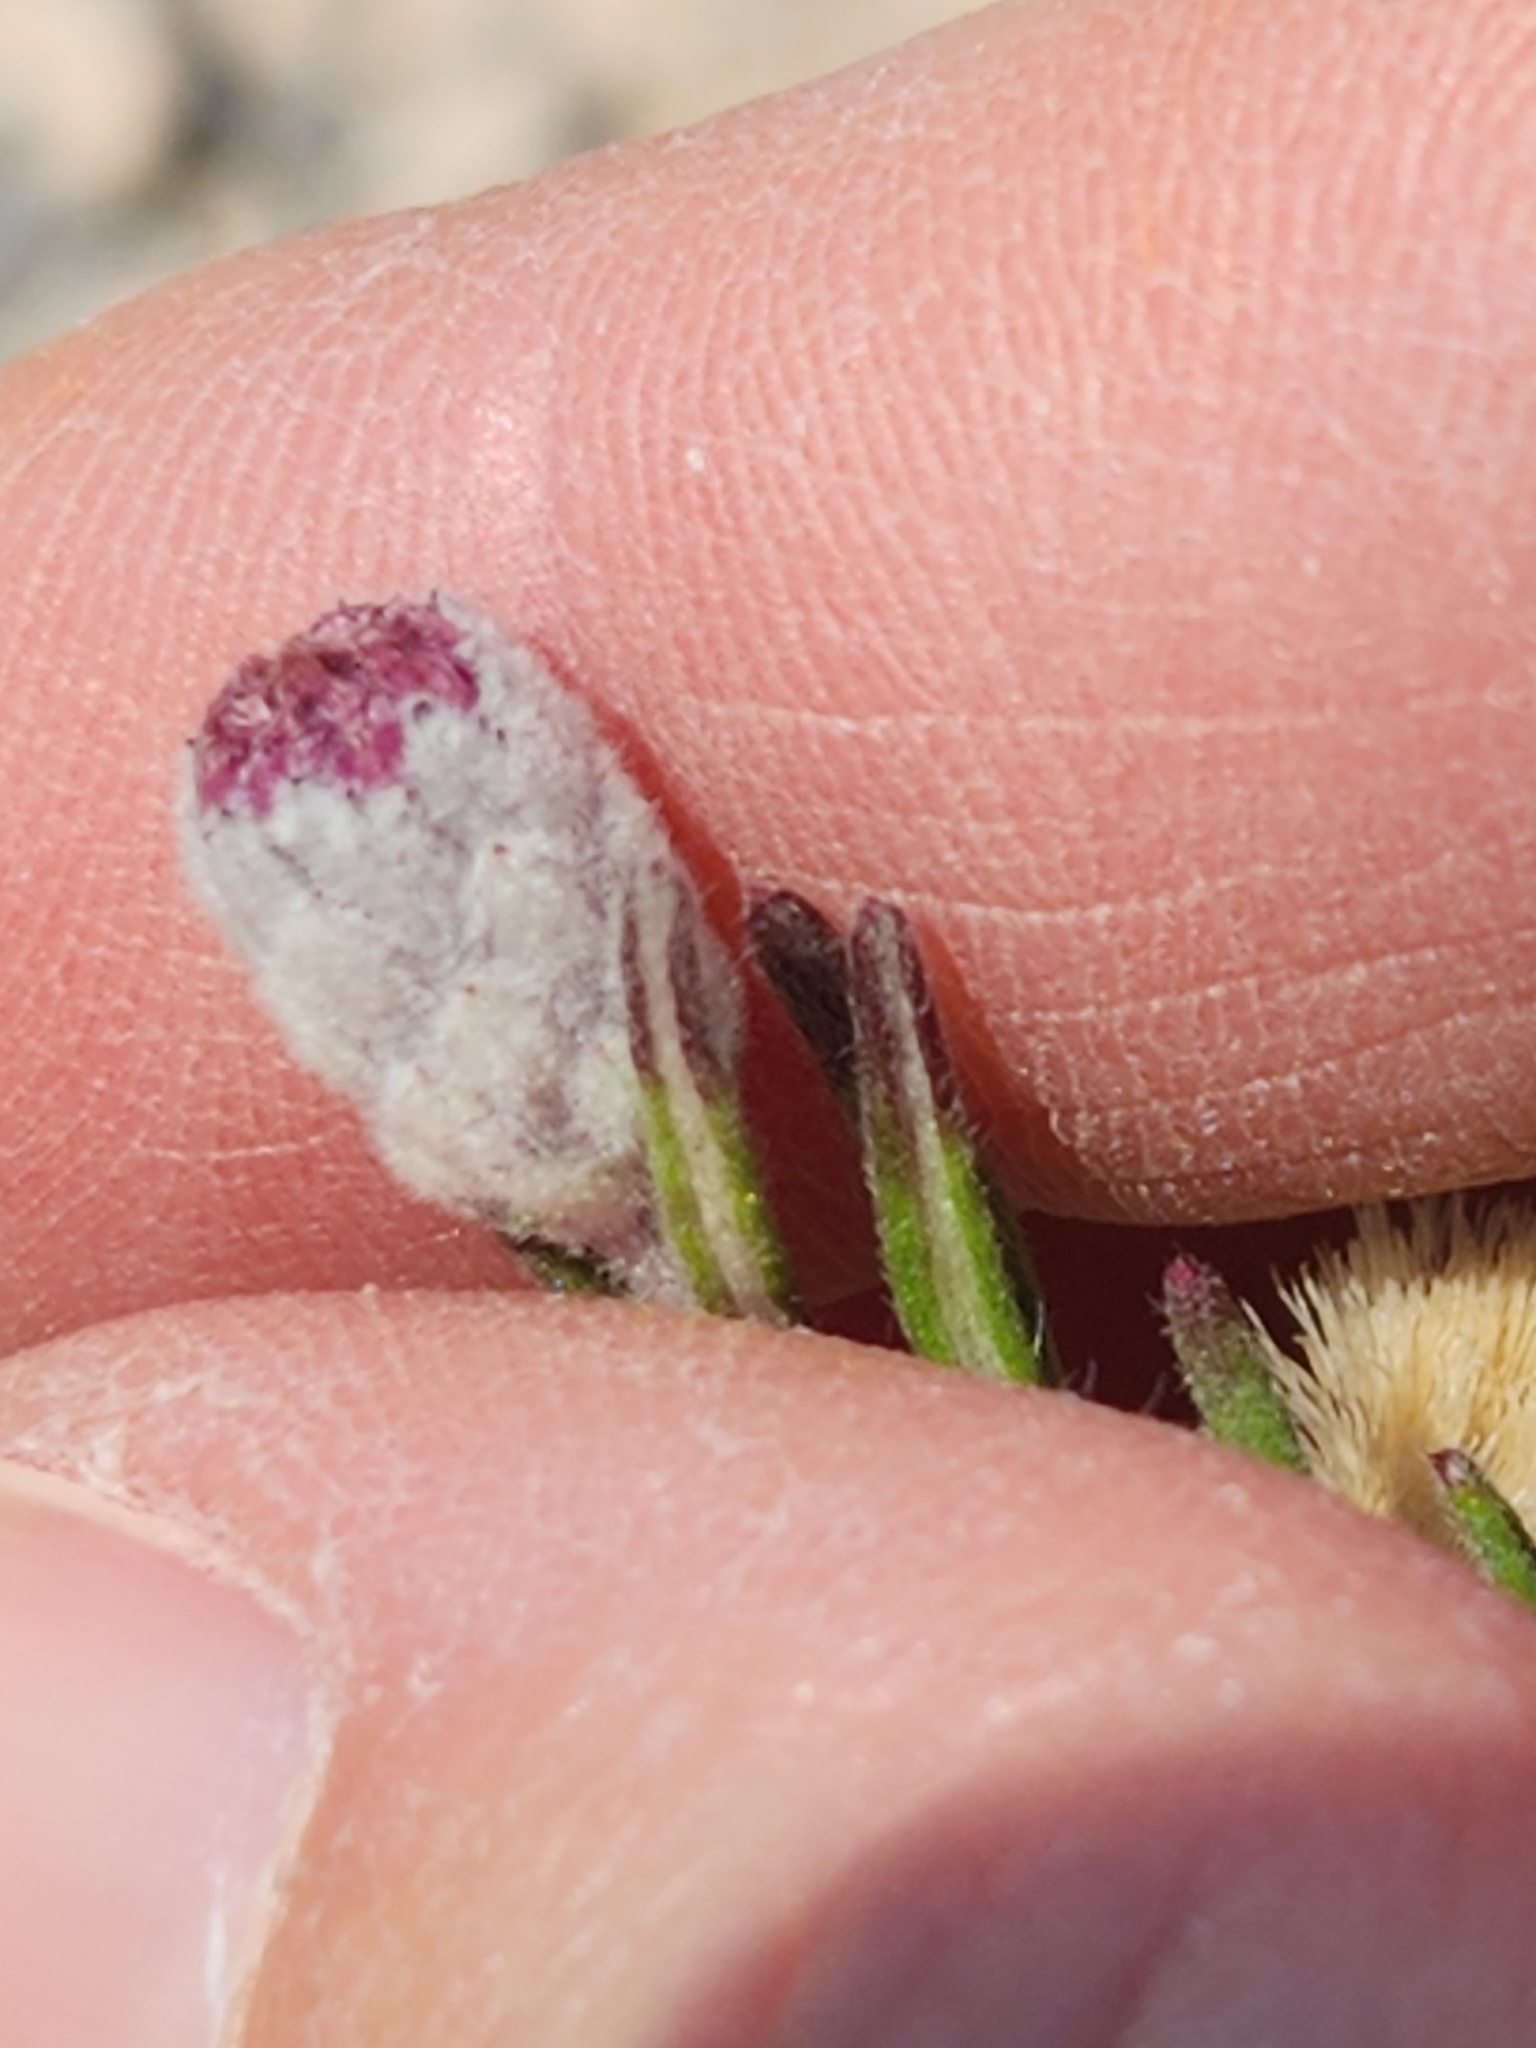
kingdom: Plantae
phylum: Tracheophyta
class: Magnoliopsida
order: Asterales
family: Asteraceae
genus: Vernonia
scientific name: Vernonia lindheimeri
